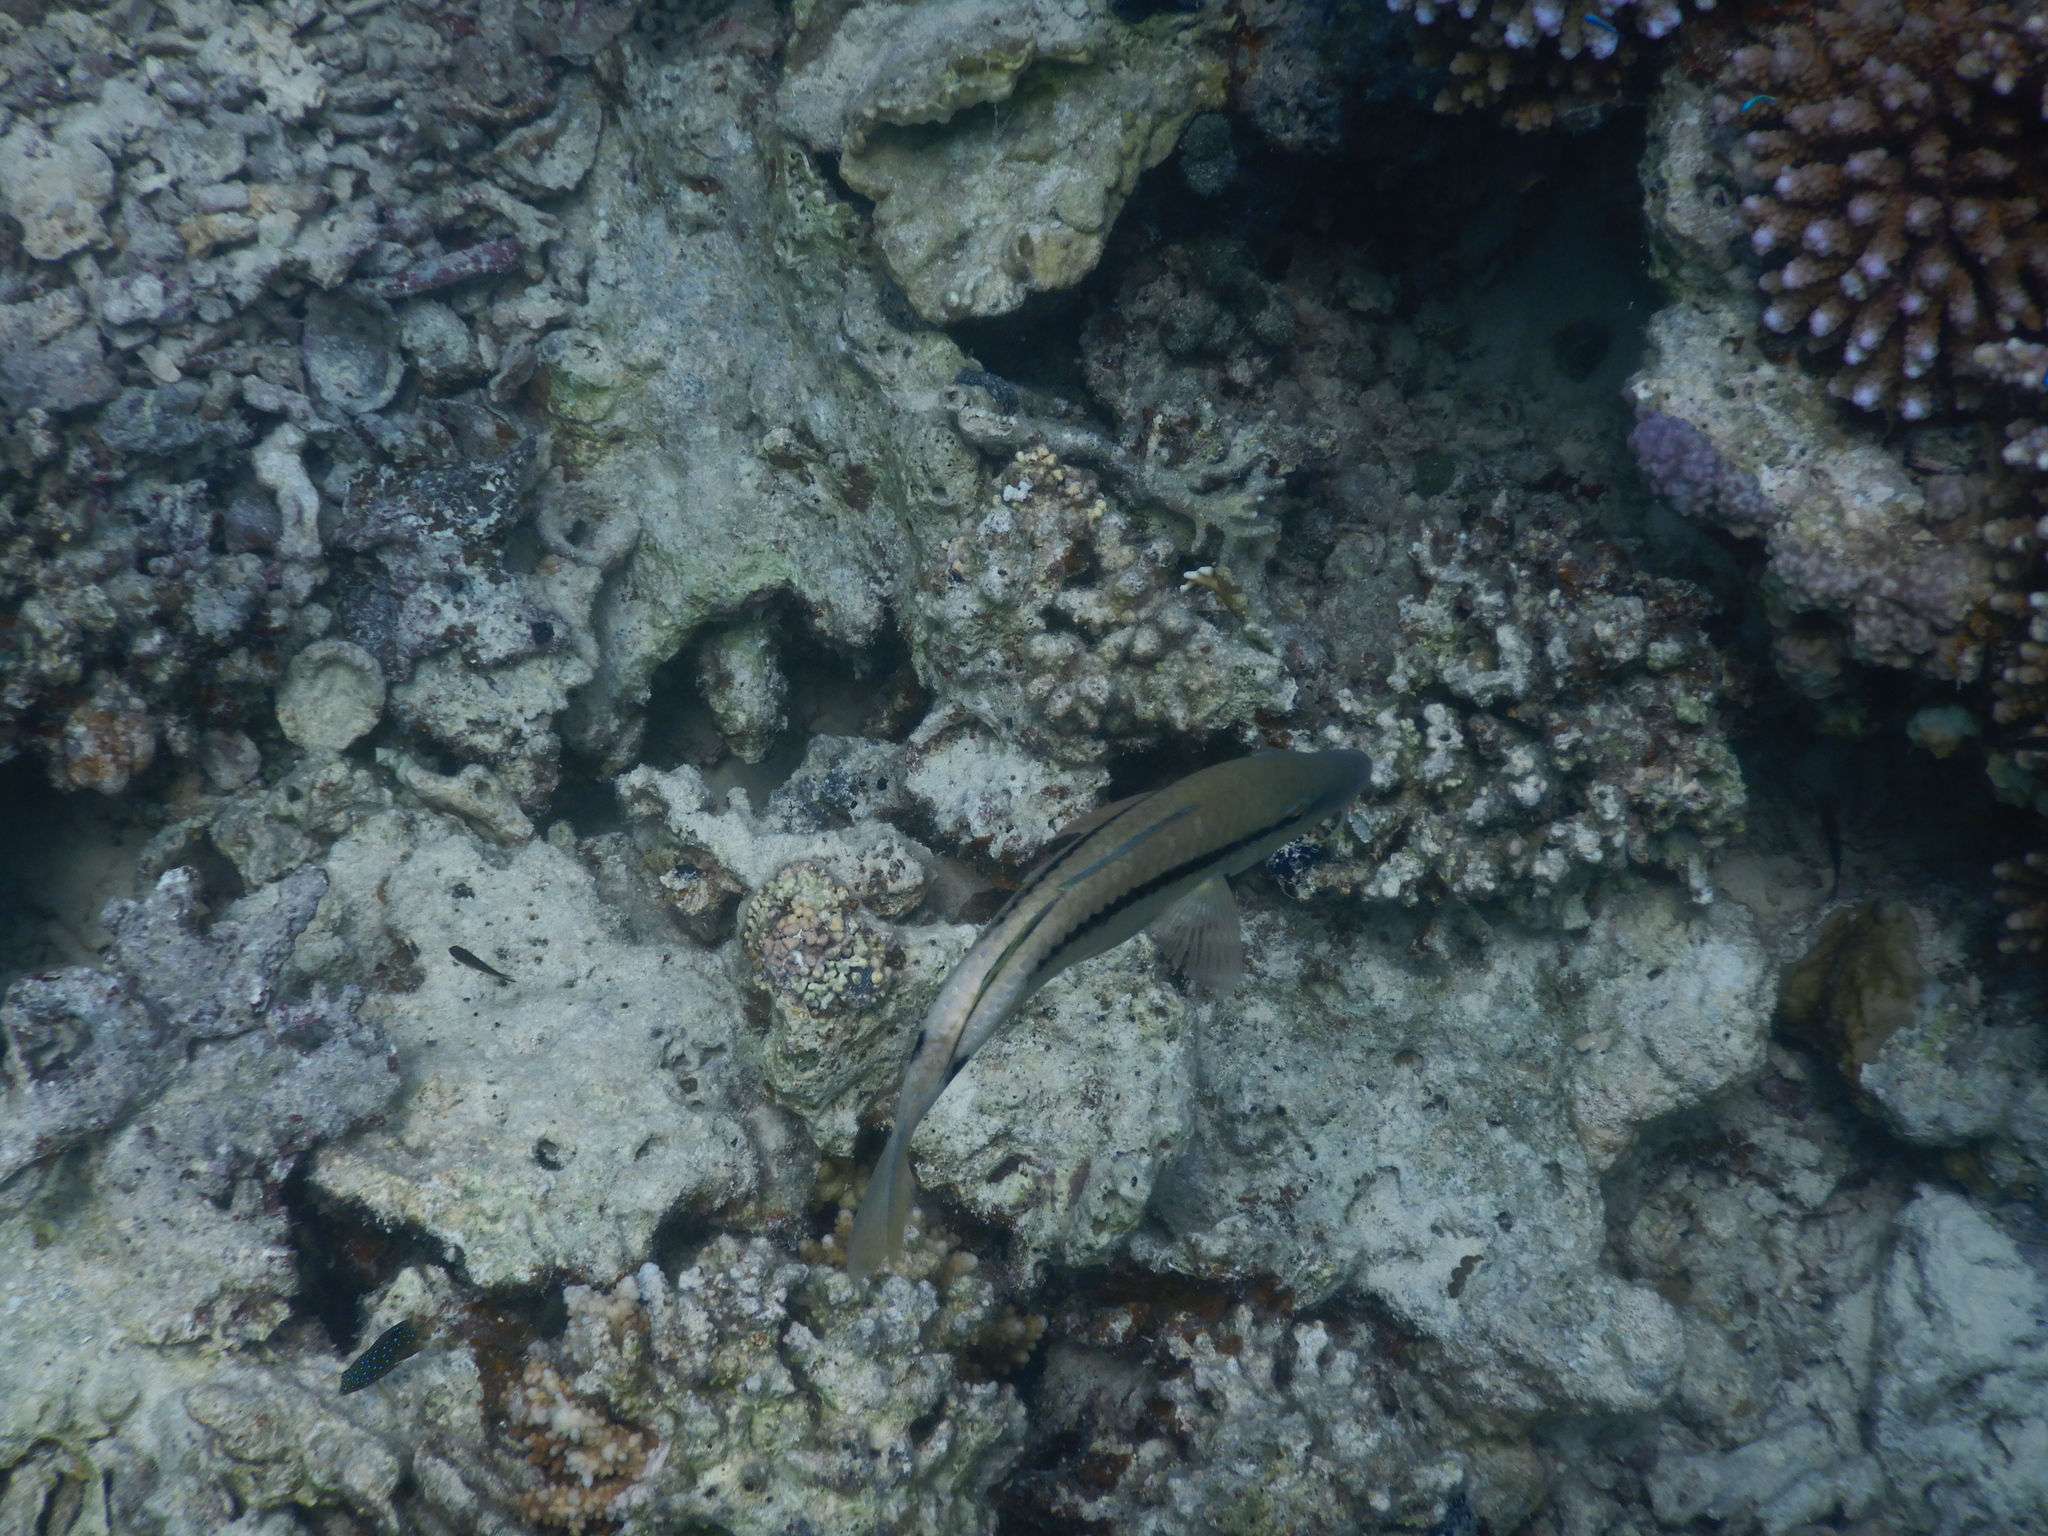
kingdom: Animalia
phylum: Chordata
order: Perciformes
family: Mullidae
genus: Parupeneus
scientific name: Parupeneus macronemus
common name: Long-barbel goatfish
